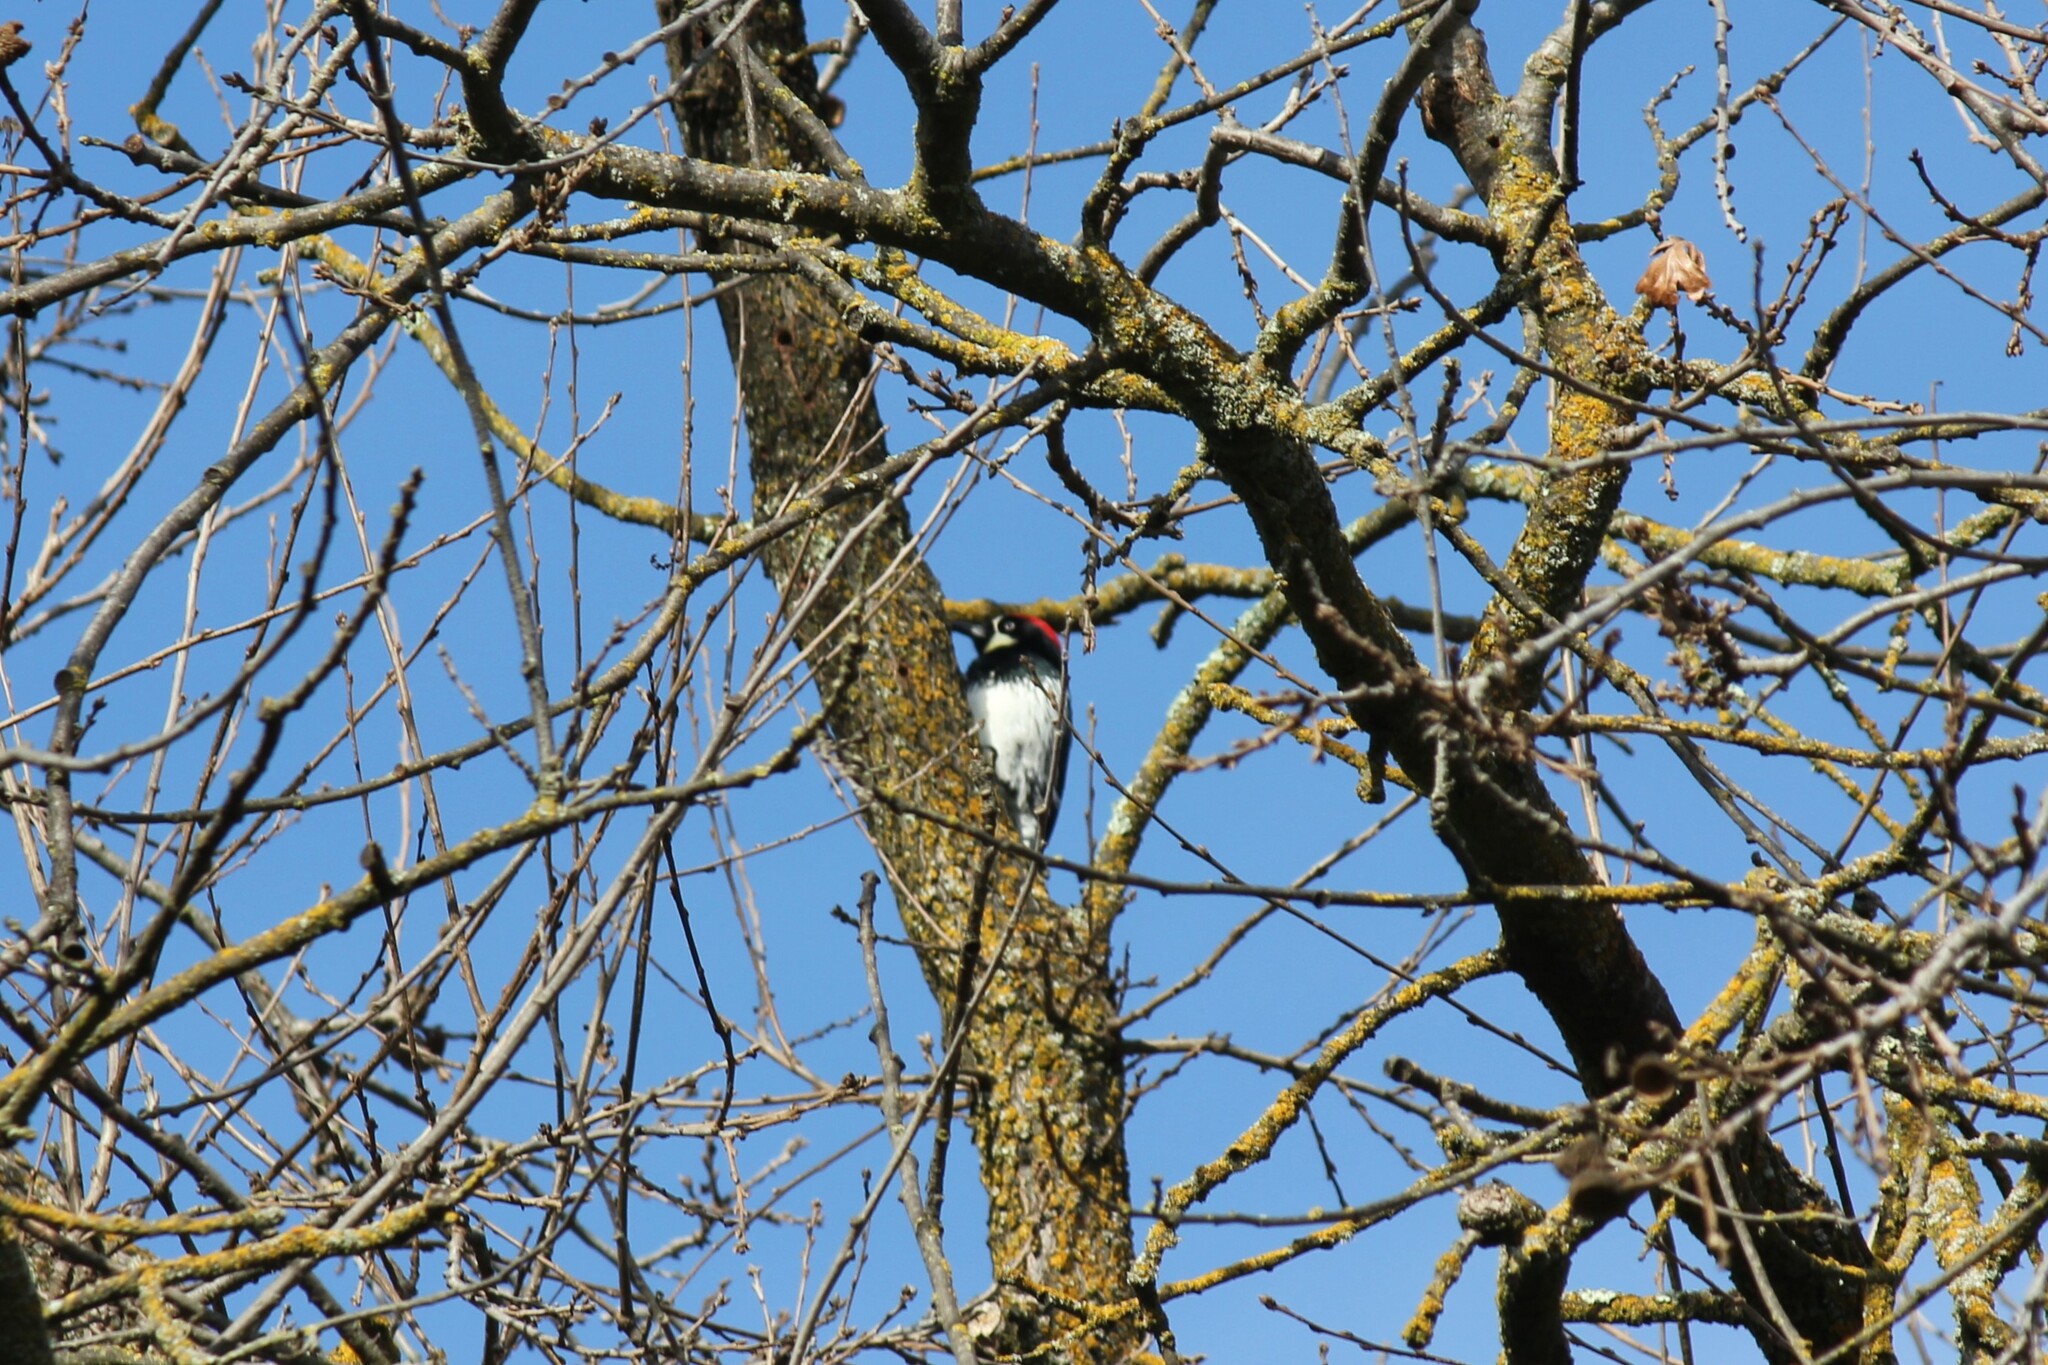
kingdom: Animalia
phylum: Chordata
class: Aves
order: Piciformes
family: Picidae
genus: Melanerpes
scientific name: Melanerpes formicivorus
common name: Acorn woodpecker
